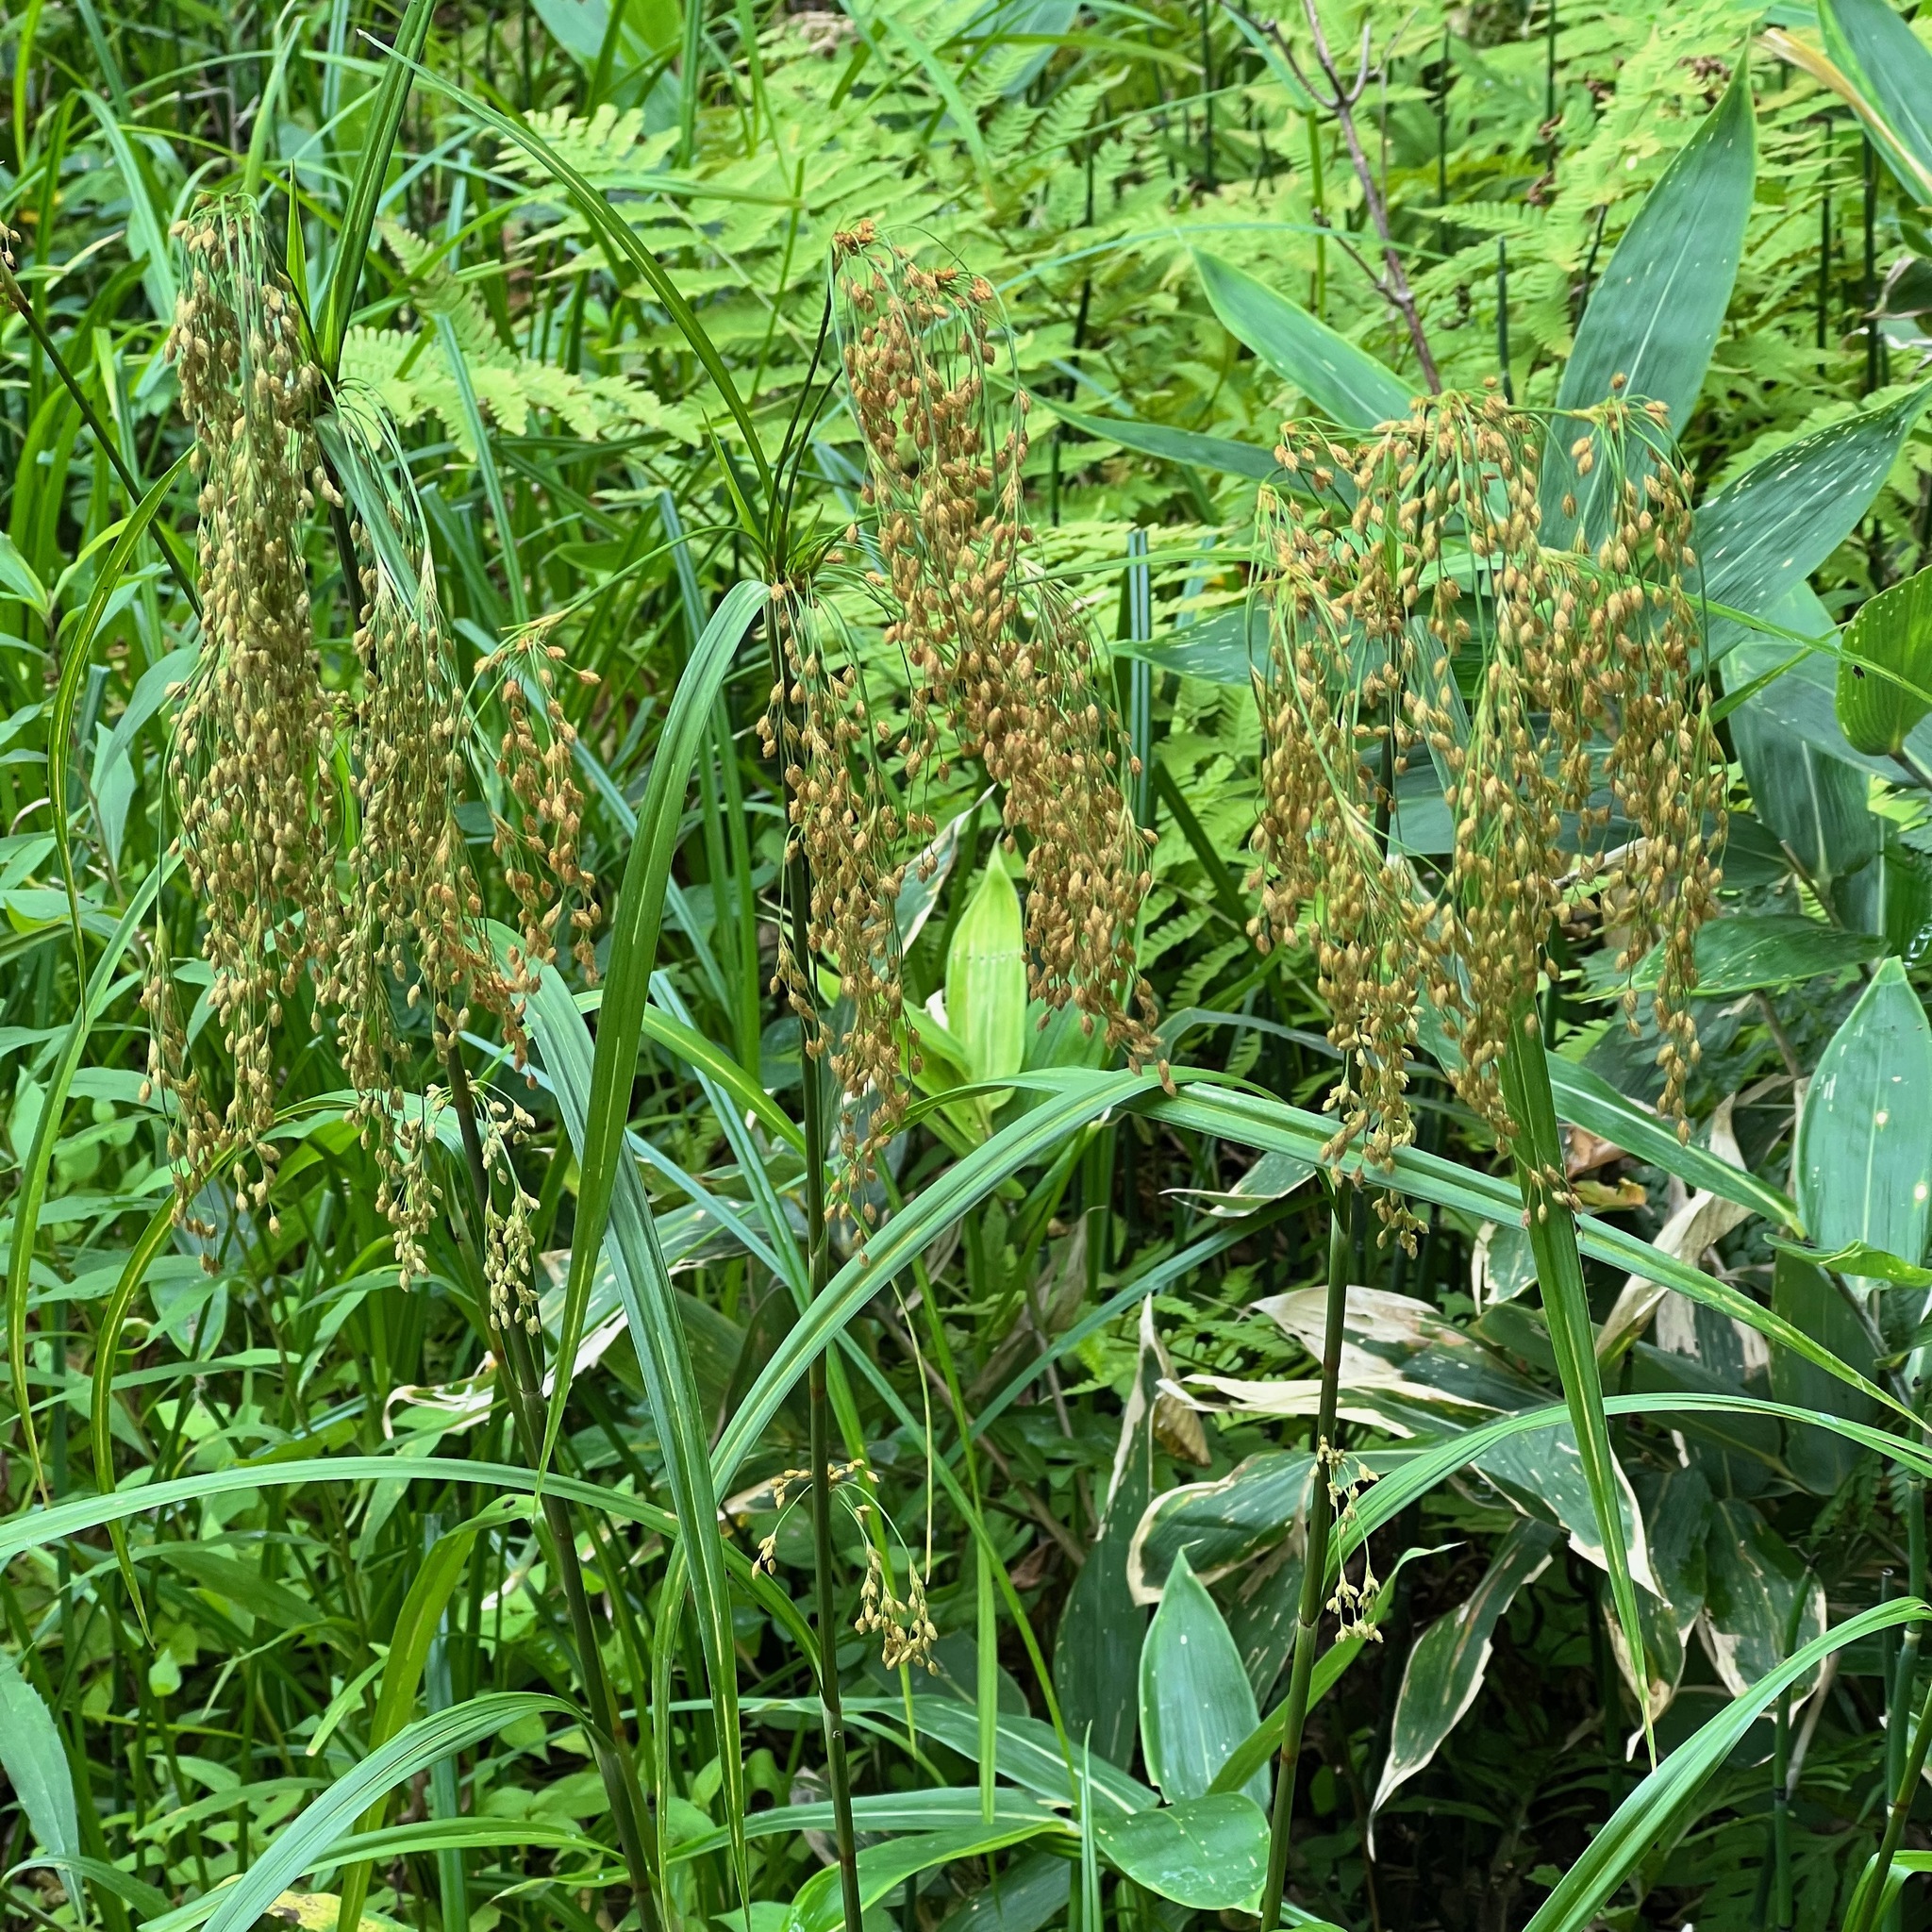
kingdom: Plantae
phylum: Tracheophyta
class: Liliopsida
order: Poales
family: Cyperaceae
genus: Scirpus
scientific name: Scirpus wichurae
